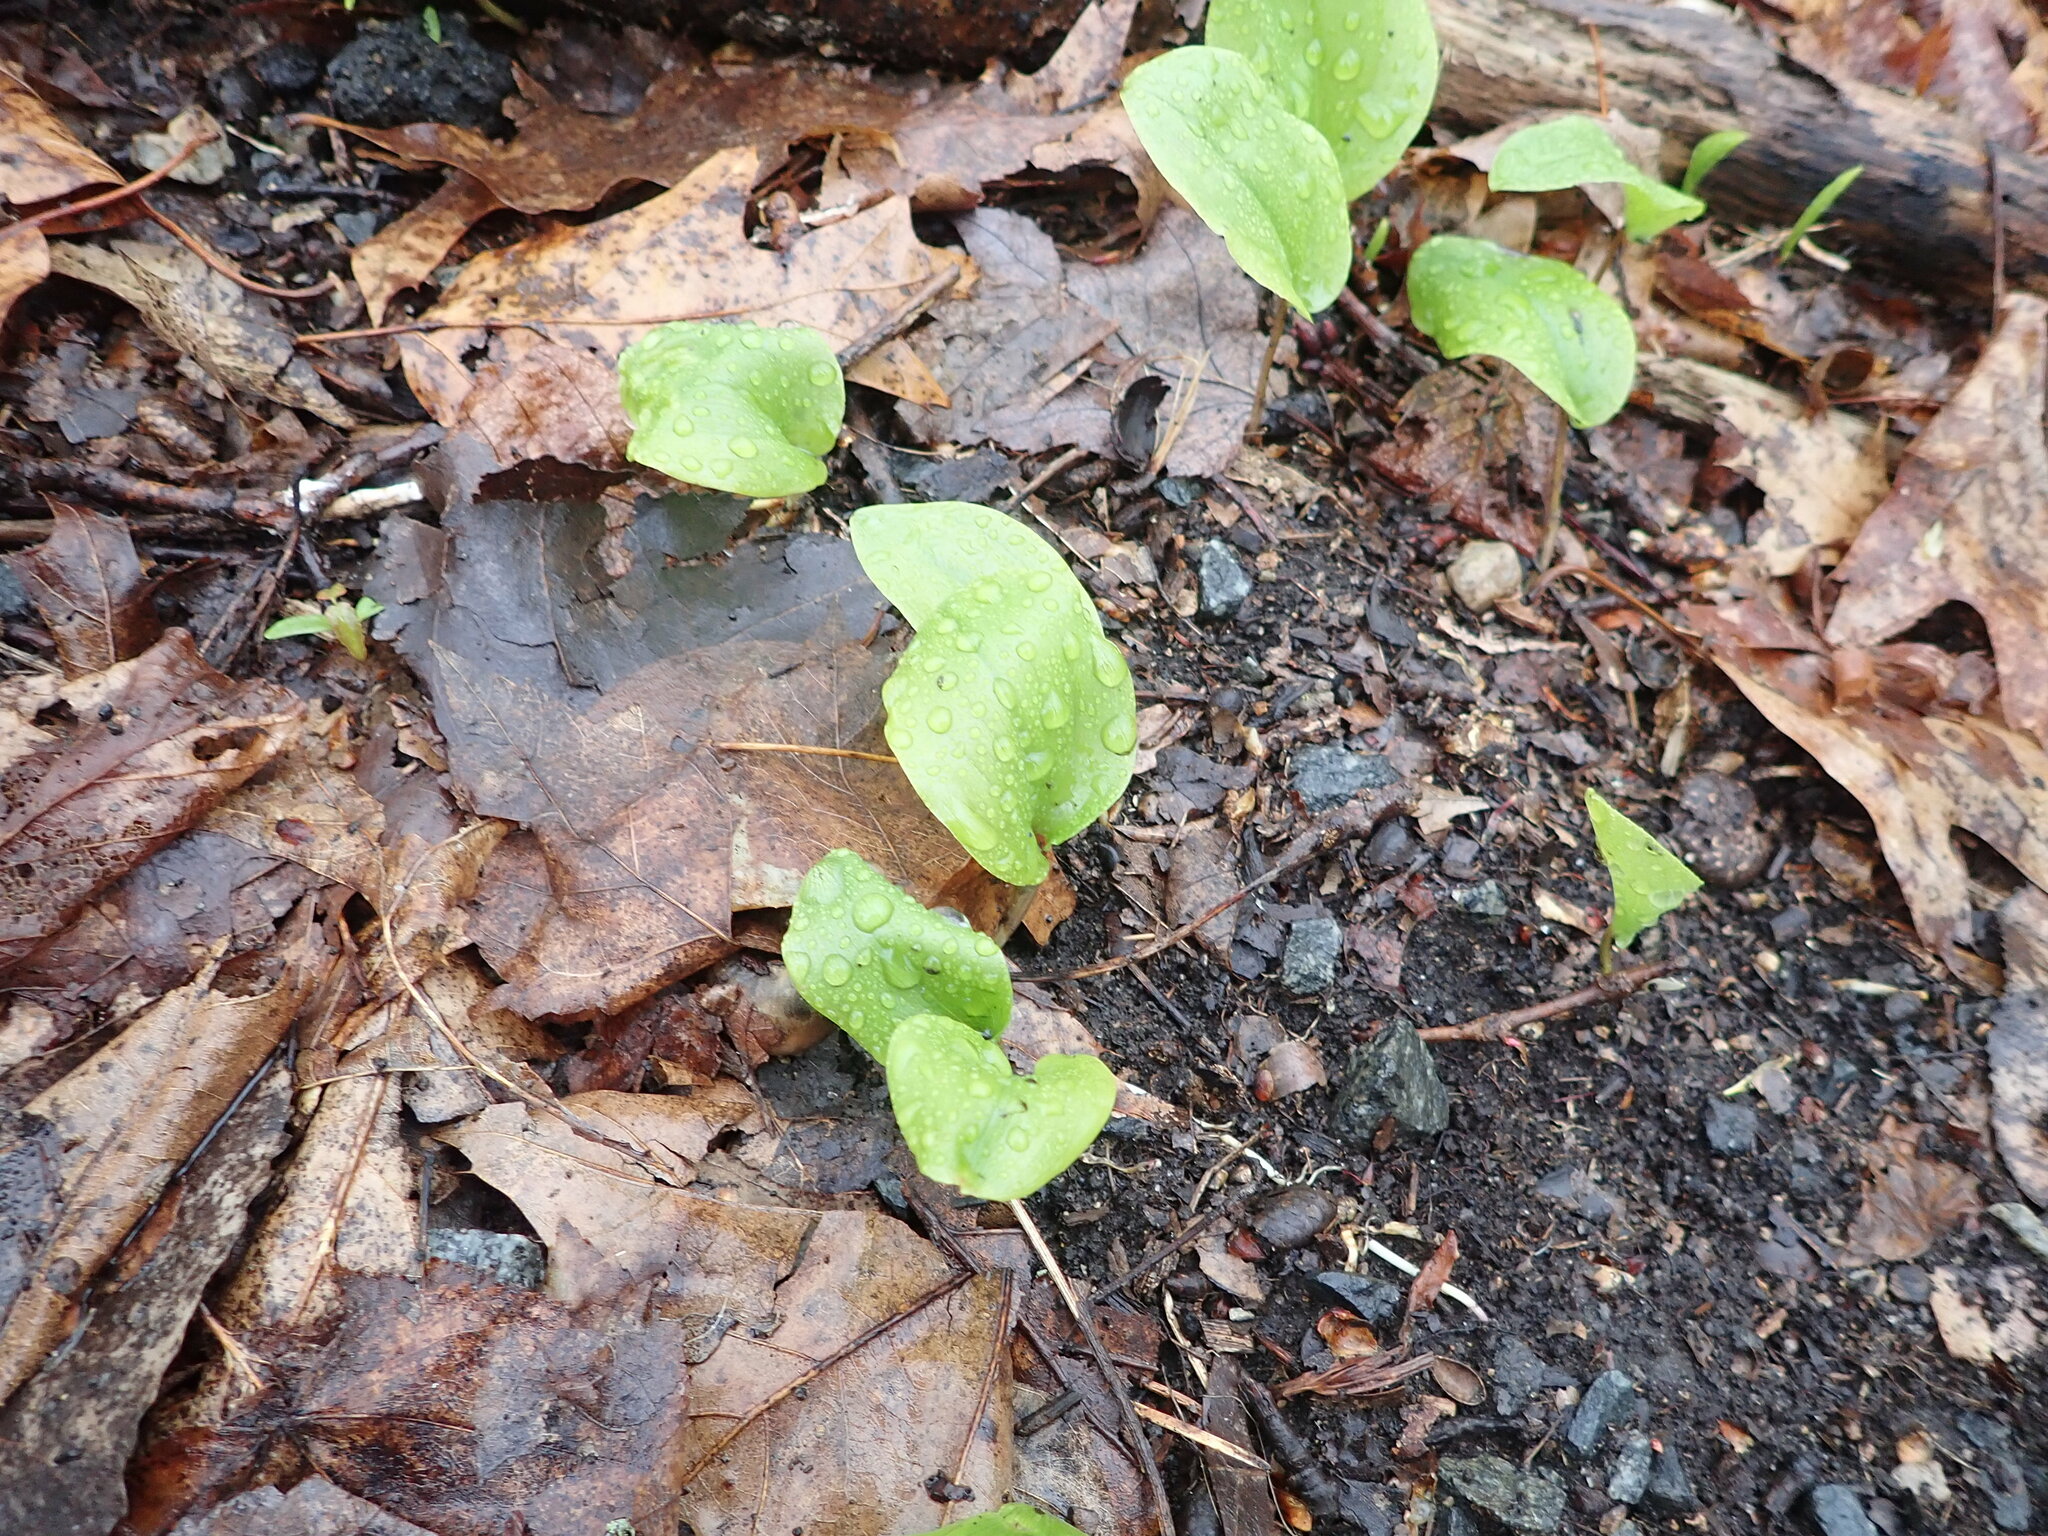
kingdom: Plantae
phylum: Tracheophyta
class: Liliopsida
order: Asparagales
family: Asparagaceae
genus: Maianthemum
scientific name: Maianthemum canadense
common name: False lily-of-the-valley
